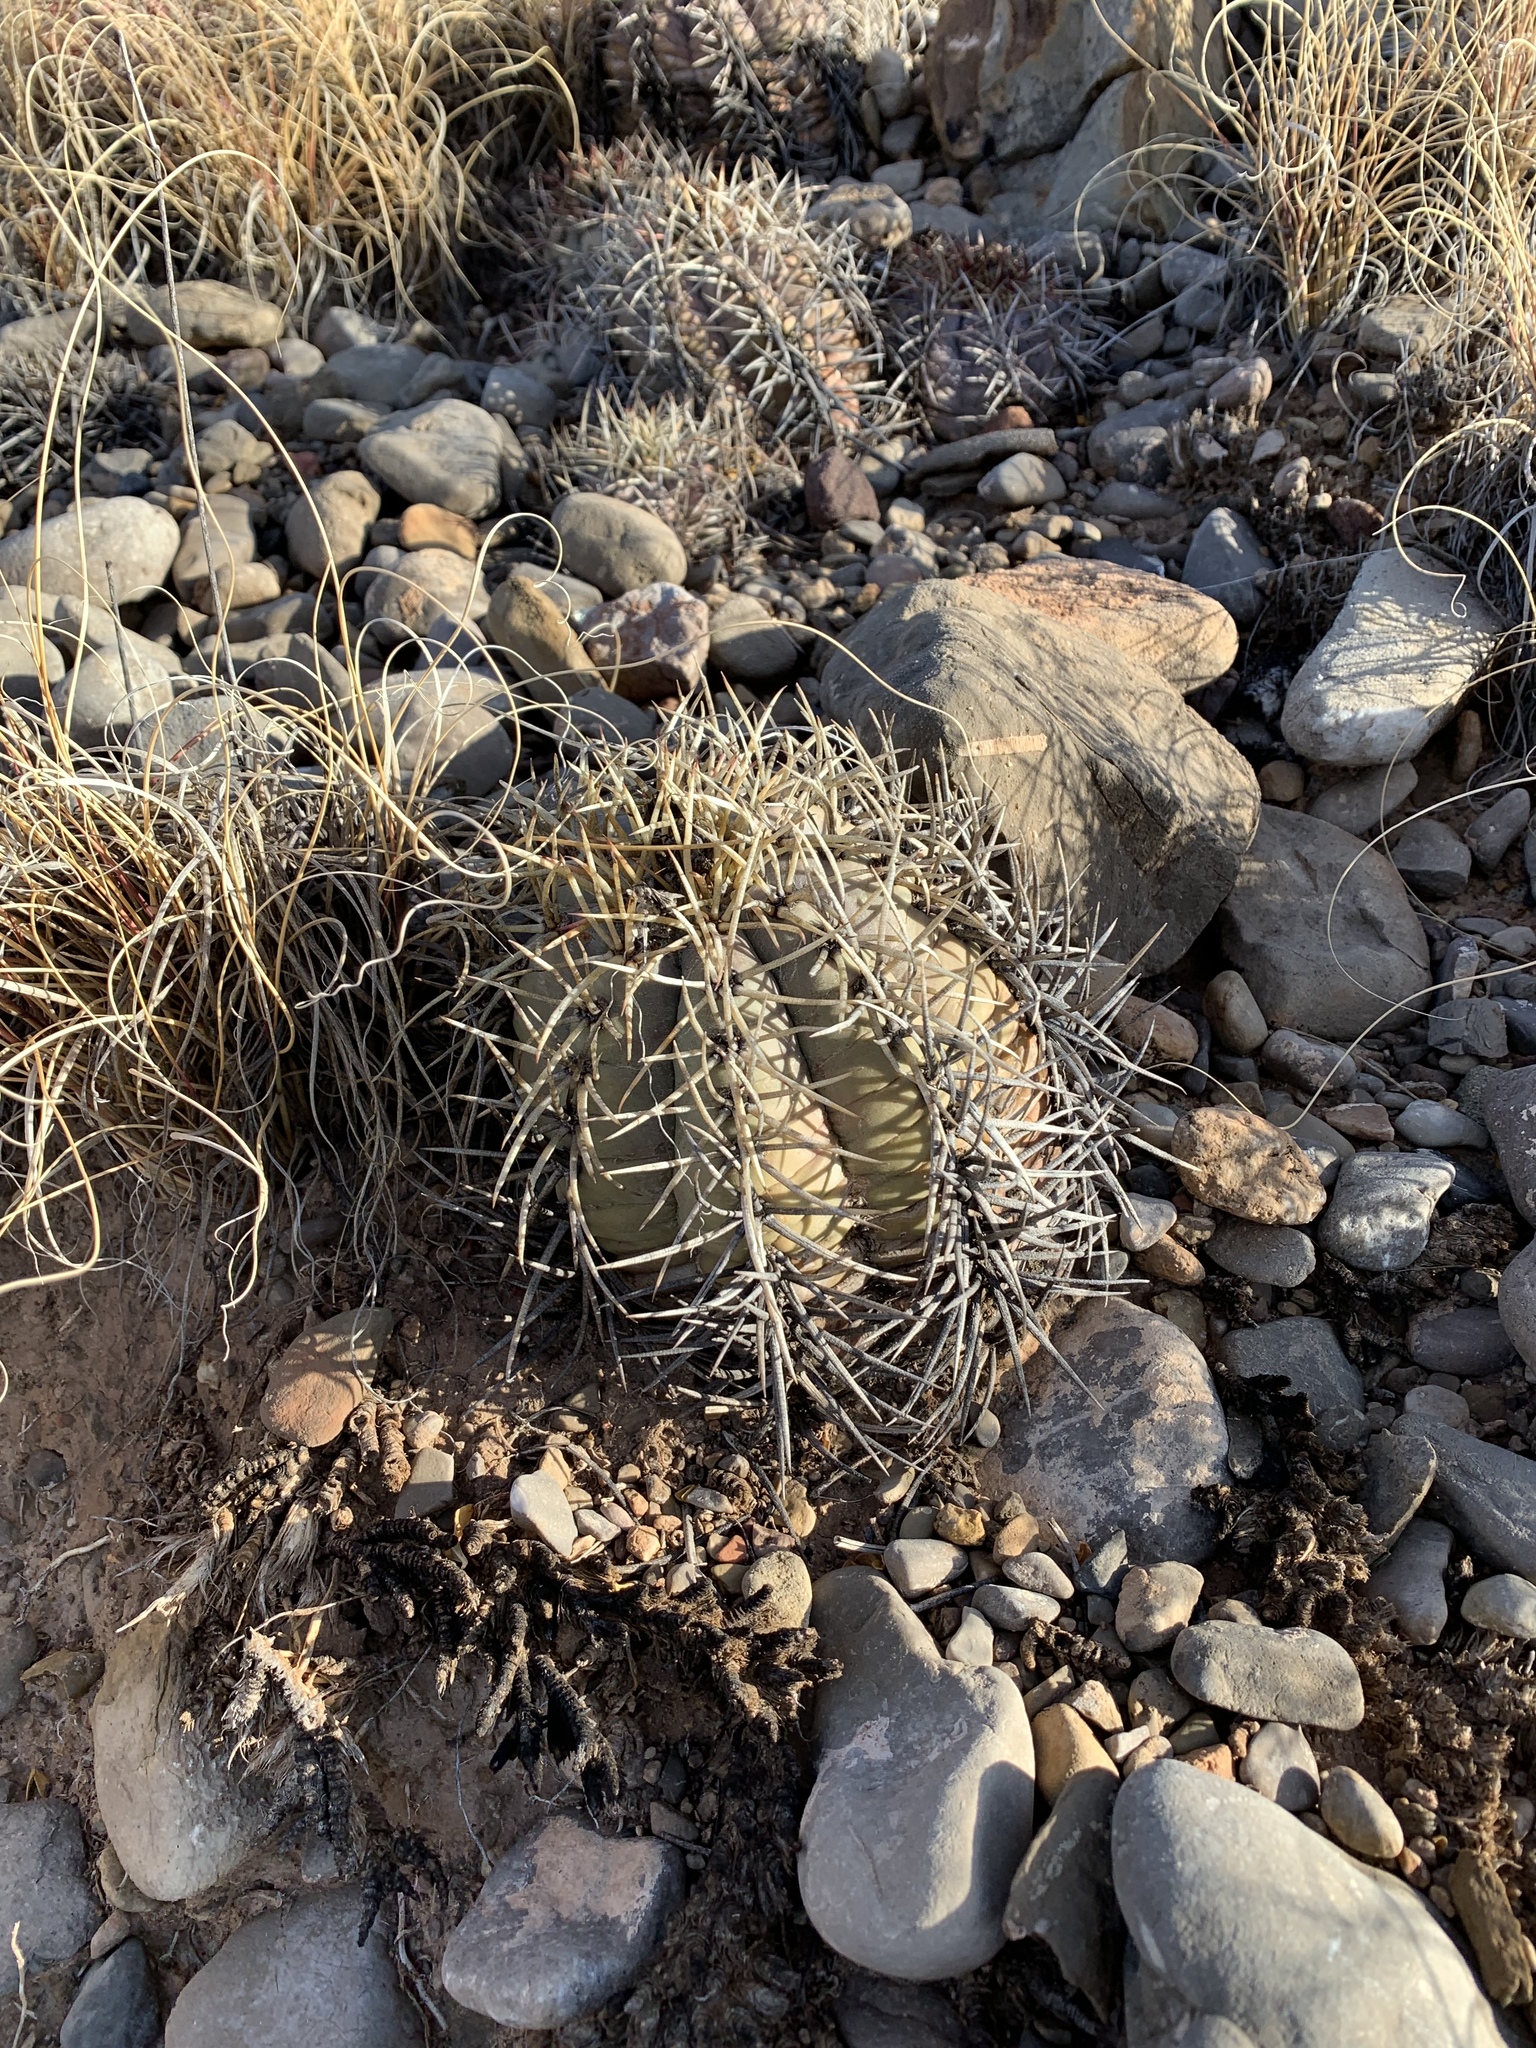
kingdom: Plantae
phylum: Tracheophyta
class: Magnoliopsida
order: Caryophyllales
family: Cactaceae
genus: Echinocactus
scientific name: Echinocactus horizonthalonius
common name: Devilshead
